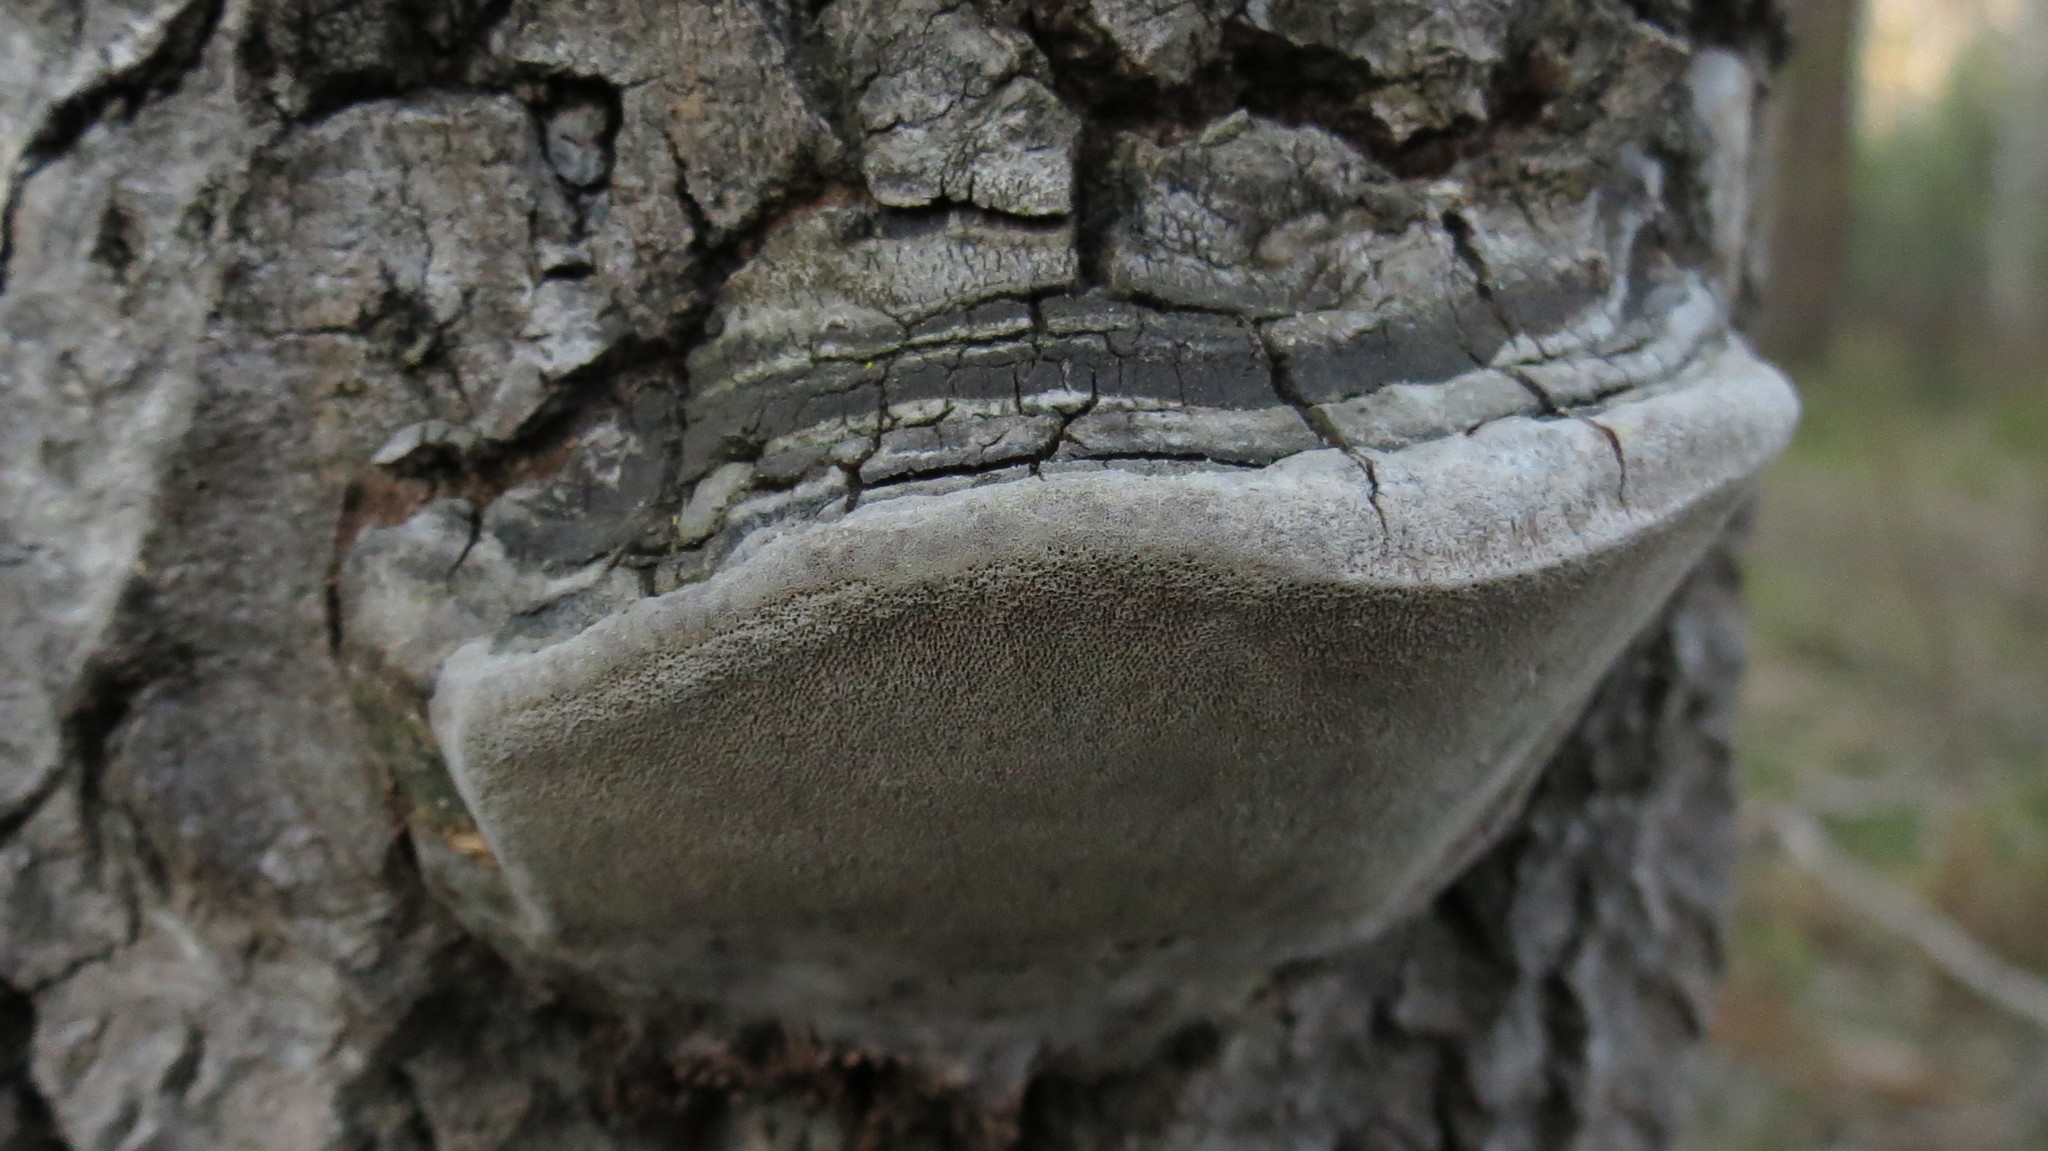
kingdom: Fungi
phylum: Basidiomycota
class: Agaricomycetes
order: Hymenochaetales
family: Hymenochaetaceae
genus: Phellinus
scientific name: Phellinus tremulae
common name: Aspen bracket
